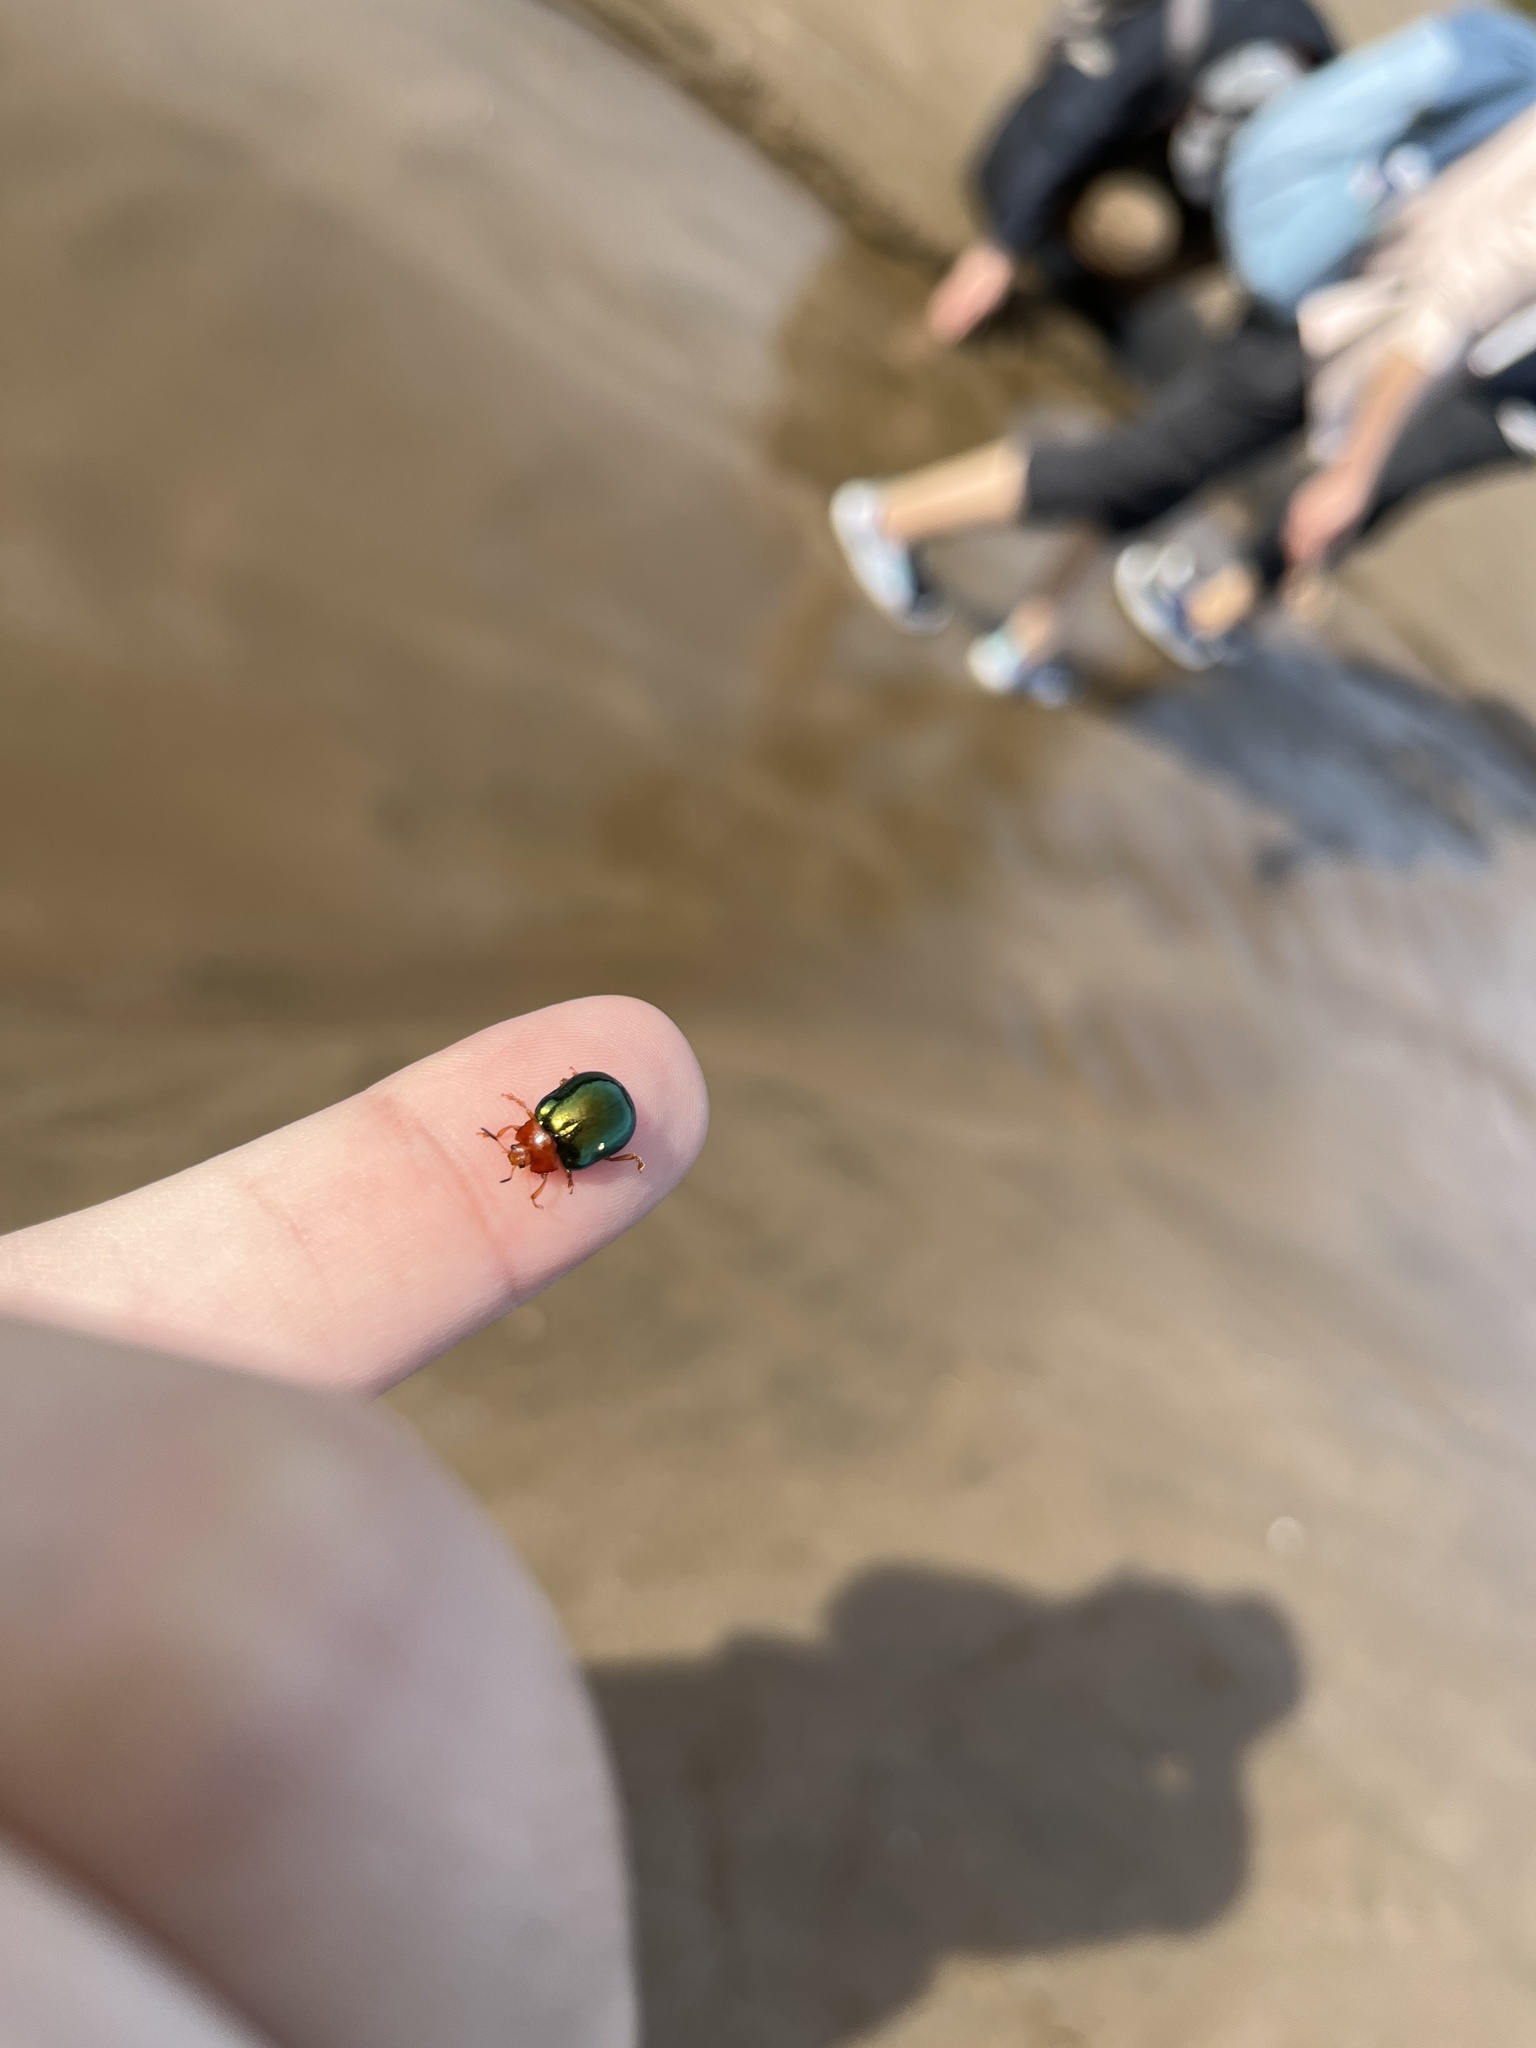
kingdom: Animalia
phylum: Arthropoda
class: Insecta
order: Coleoptera
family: Chrysomelidae
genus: Plagiosterna
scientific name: Plagiosterna
